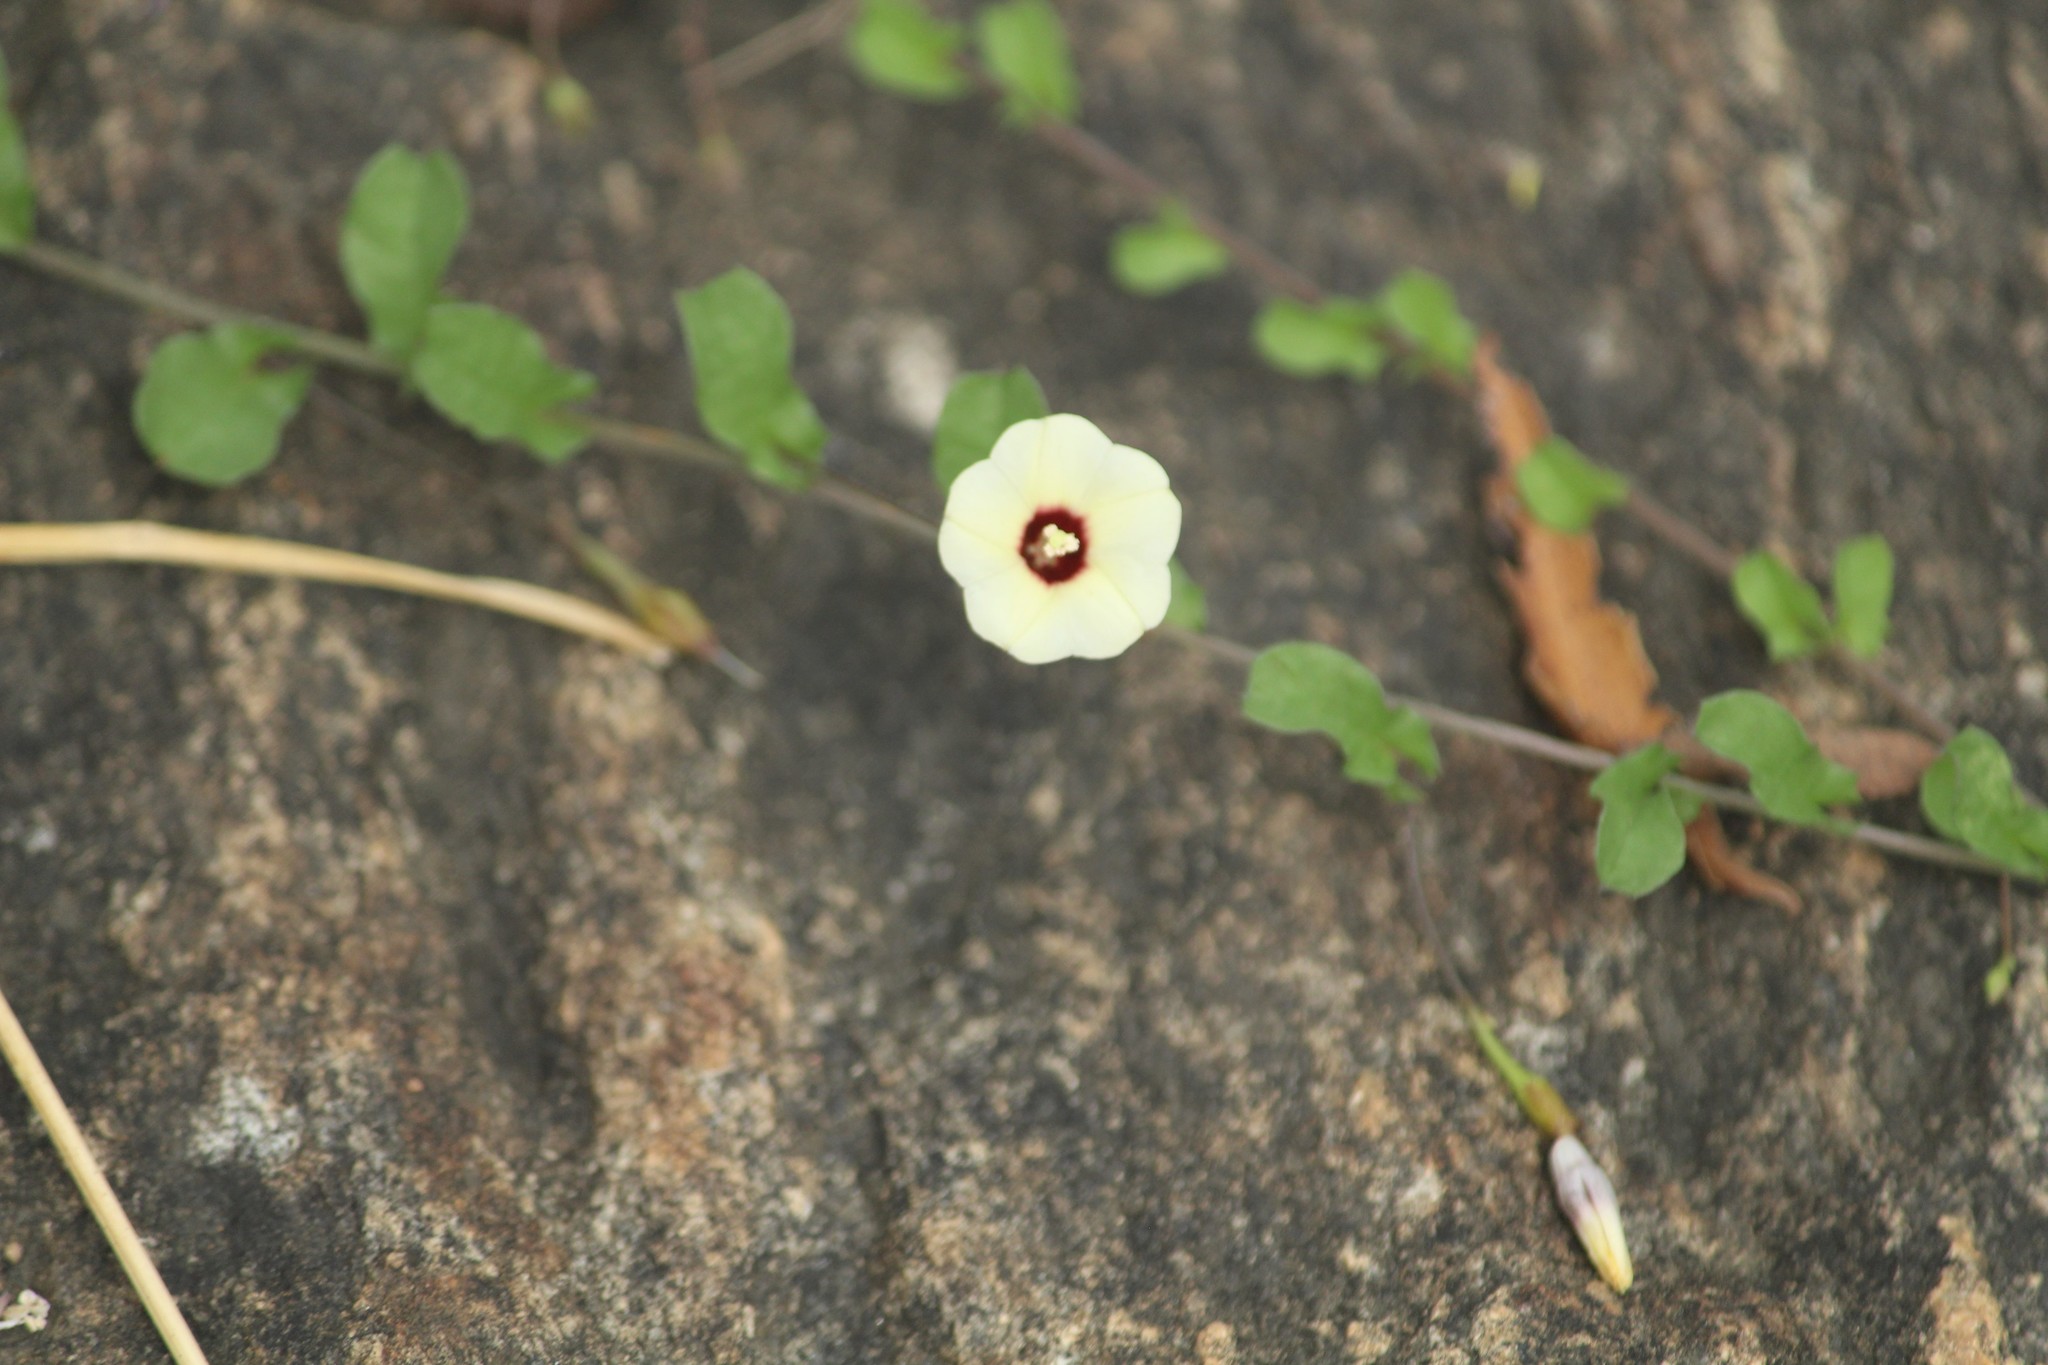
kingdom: Plantae
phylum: Tracheophyta
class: Magnoliopsida
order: Solanales
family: Convolvulaceae
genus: Ipomoea
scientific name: Ipomoea obscura
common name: Obscure morning-glory
